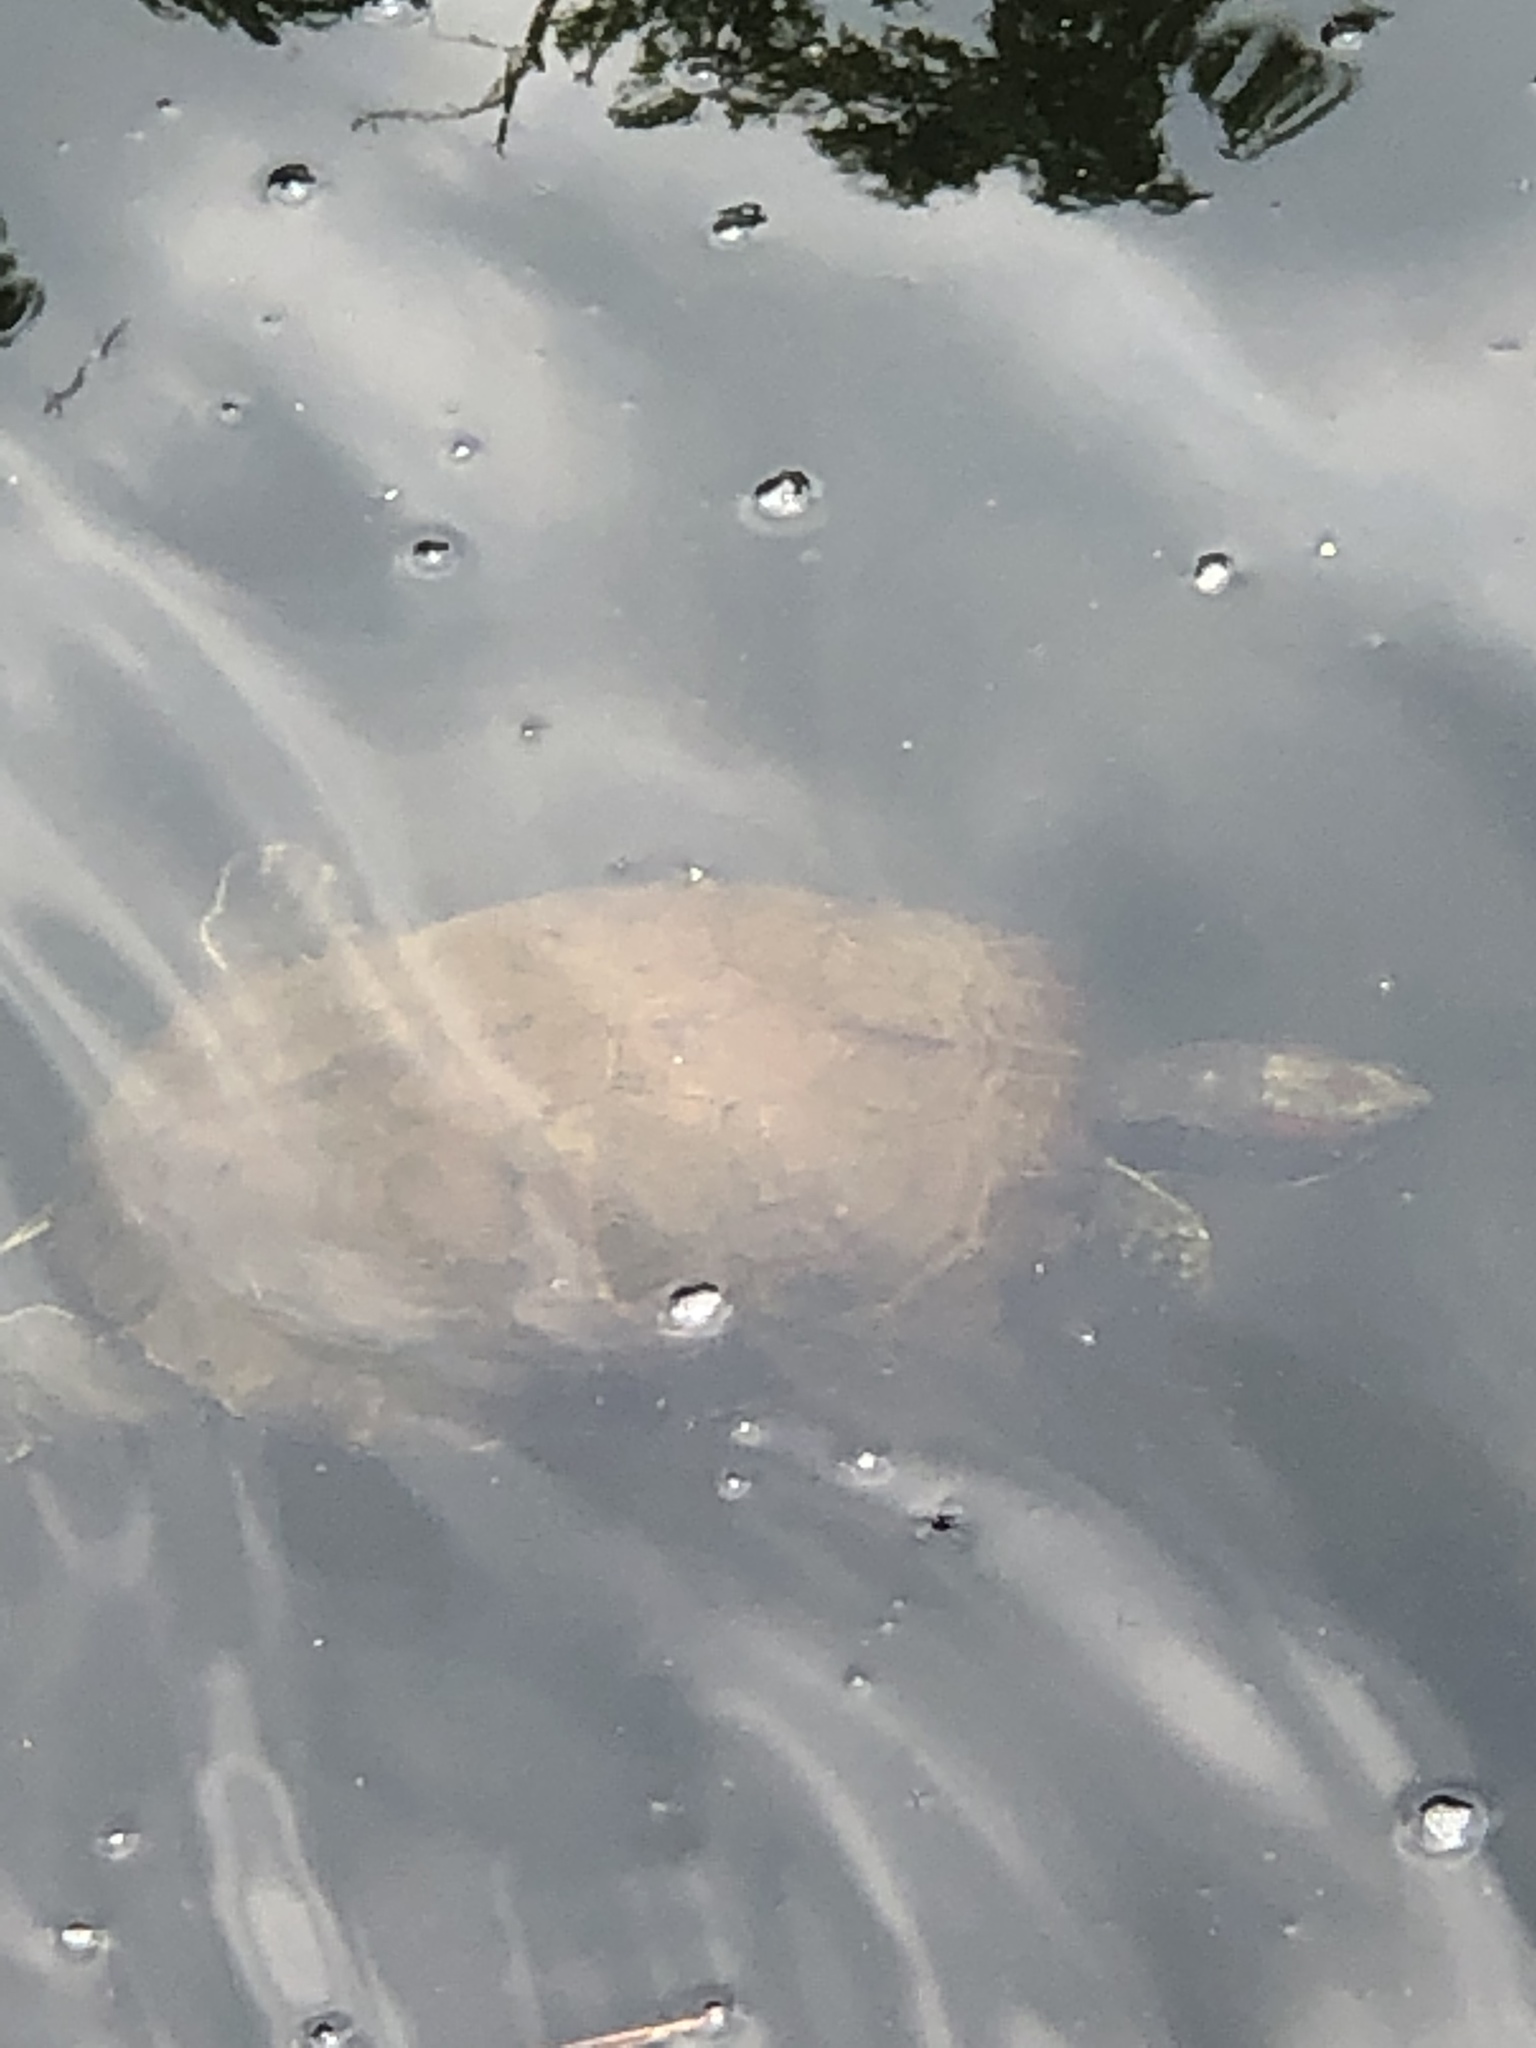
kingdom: Animalia
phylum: Chordata
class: Testudines
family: Emydidae
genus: Trachemys
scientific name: Trachemys scripta
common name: Slider
